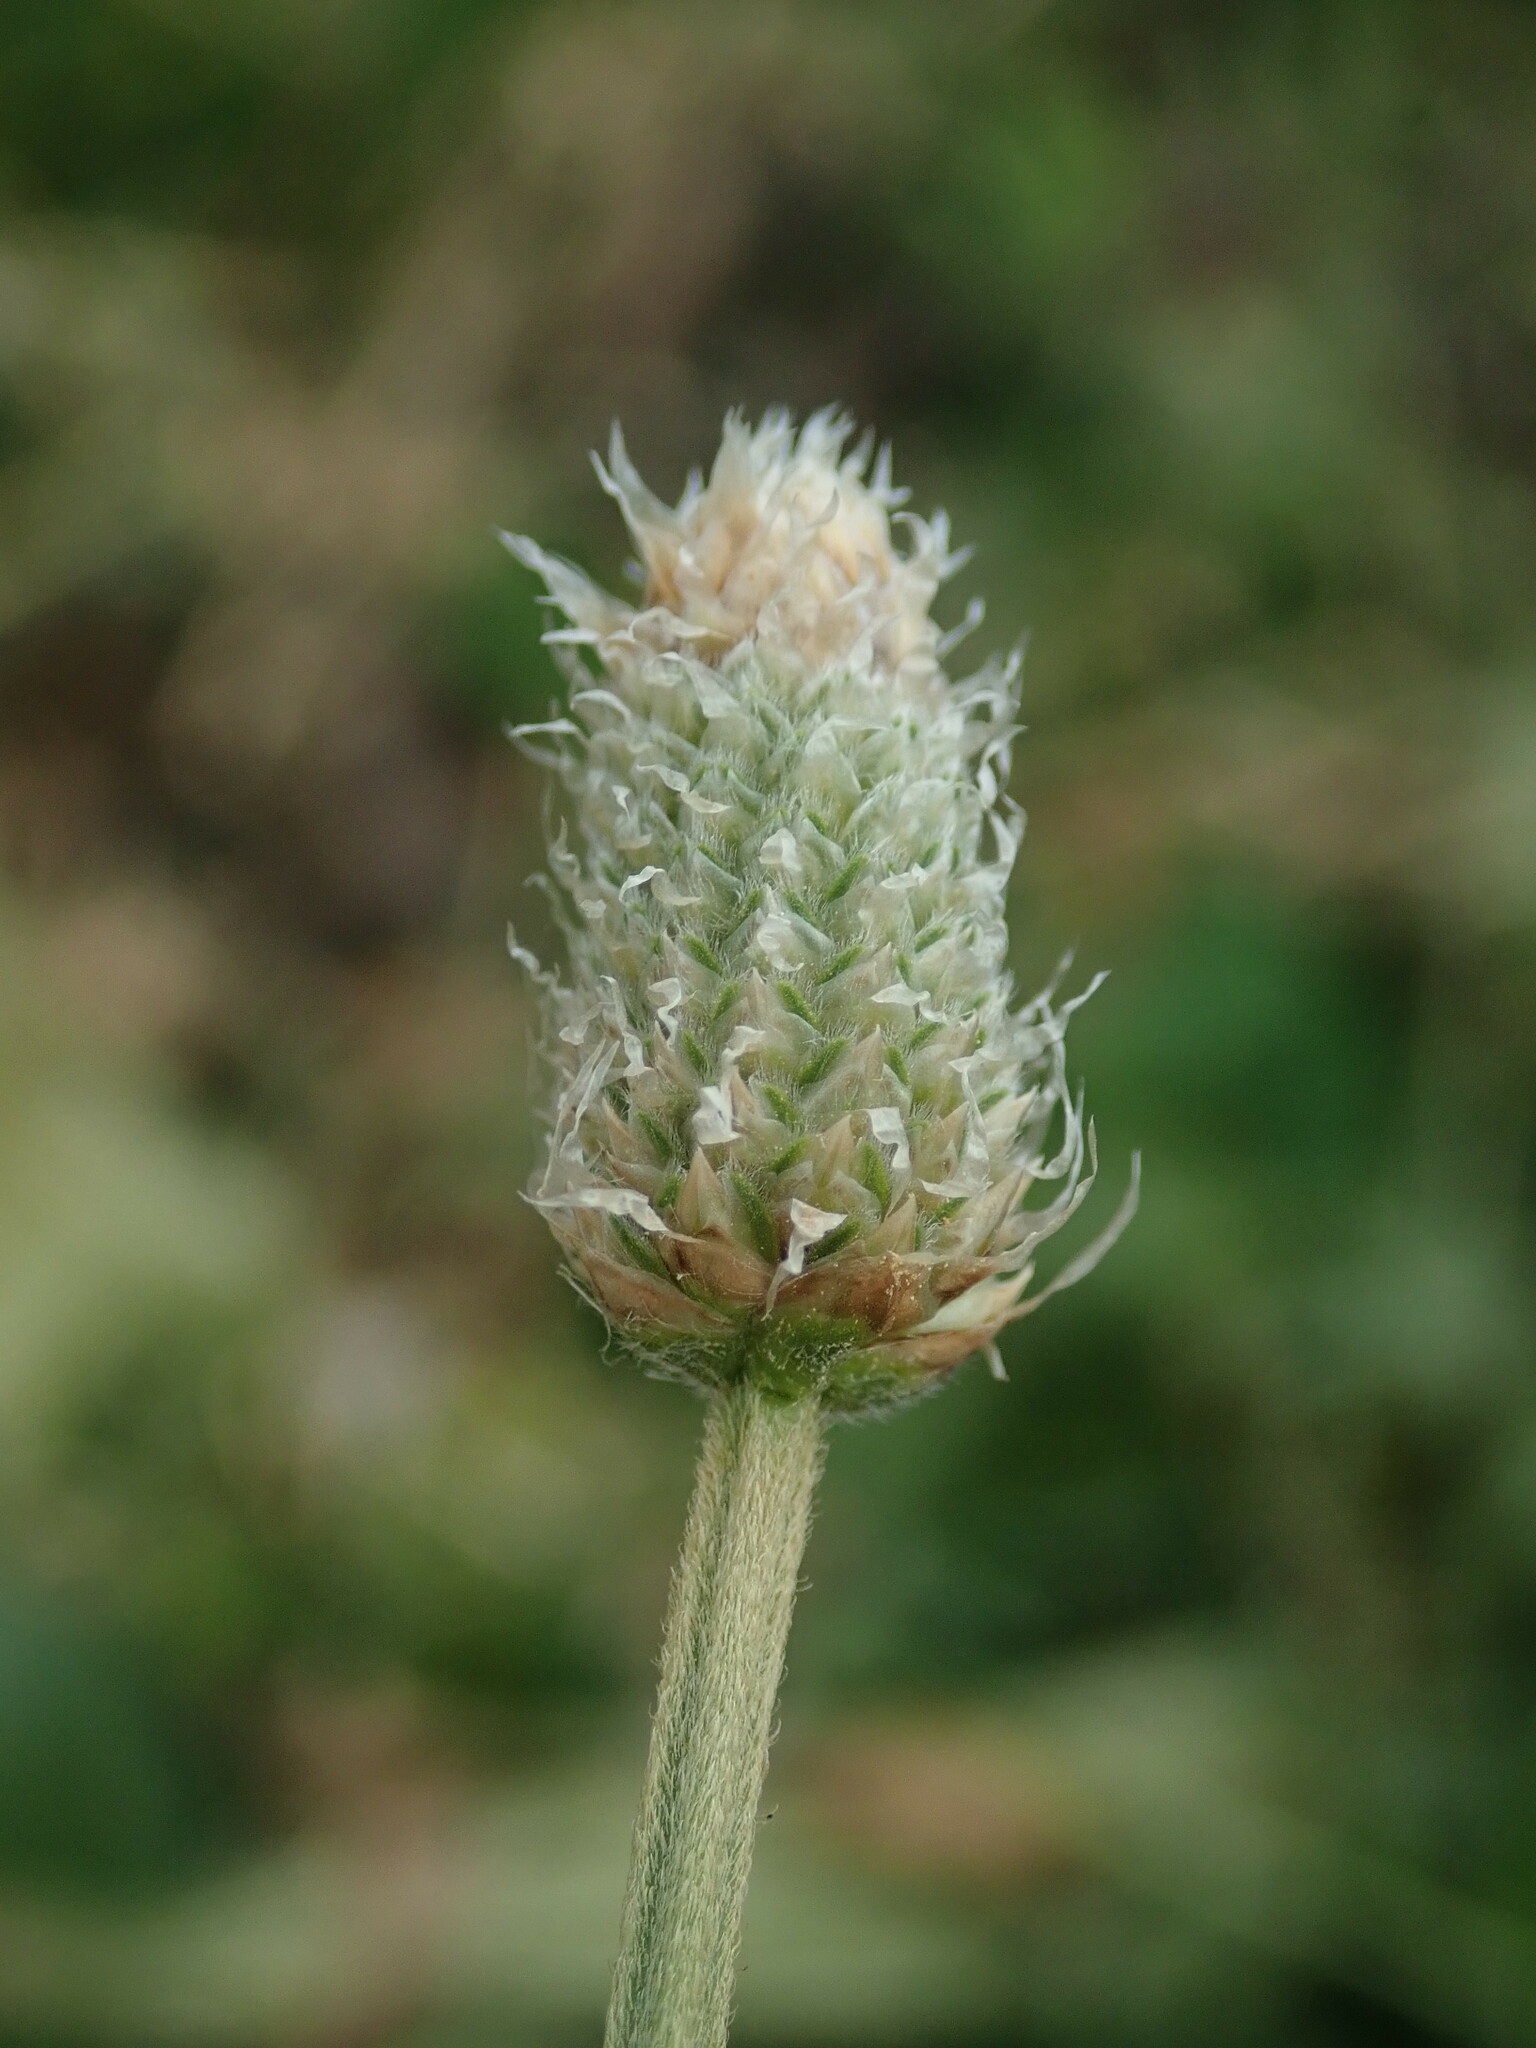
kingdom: Plantae
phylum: Tracheophyta
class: Magnoliopsida
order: Lamiales
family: Plantaginaceae
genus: Plantago
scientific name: Plantago lanceolata
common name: Ribwort plantain
